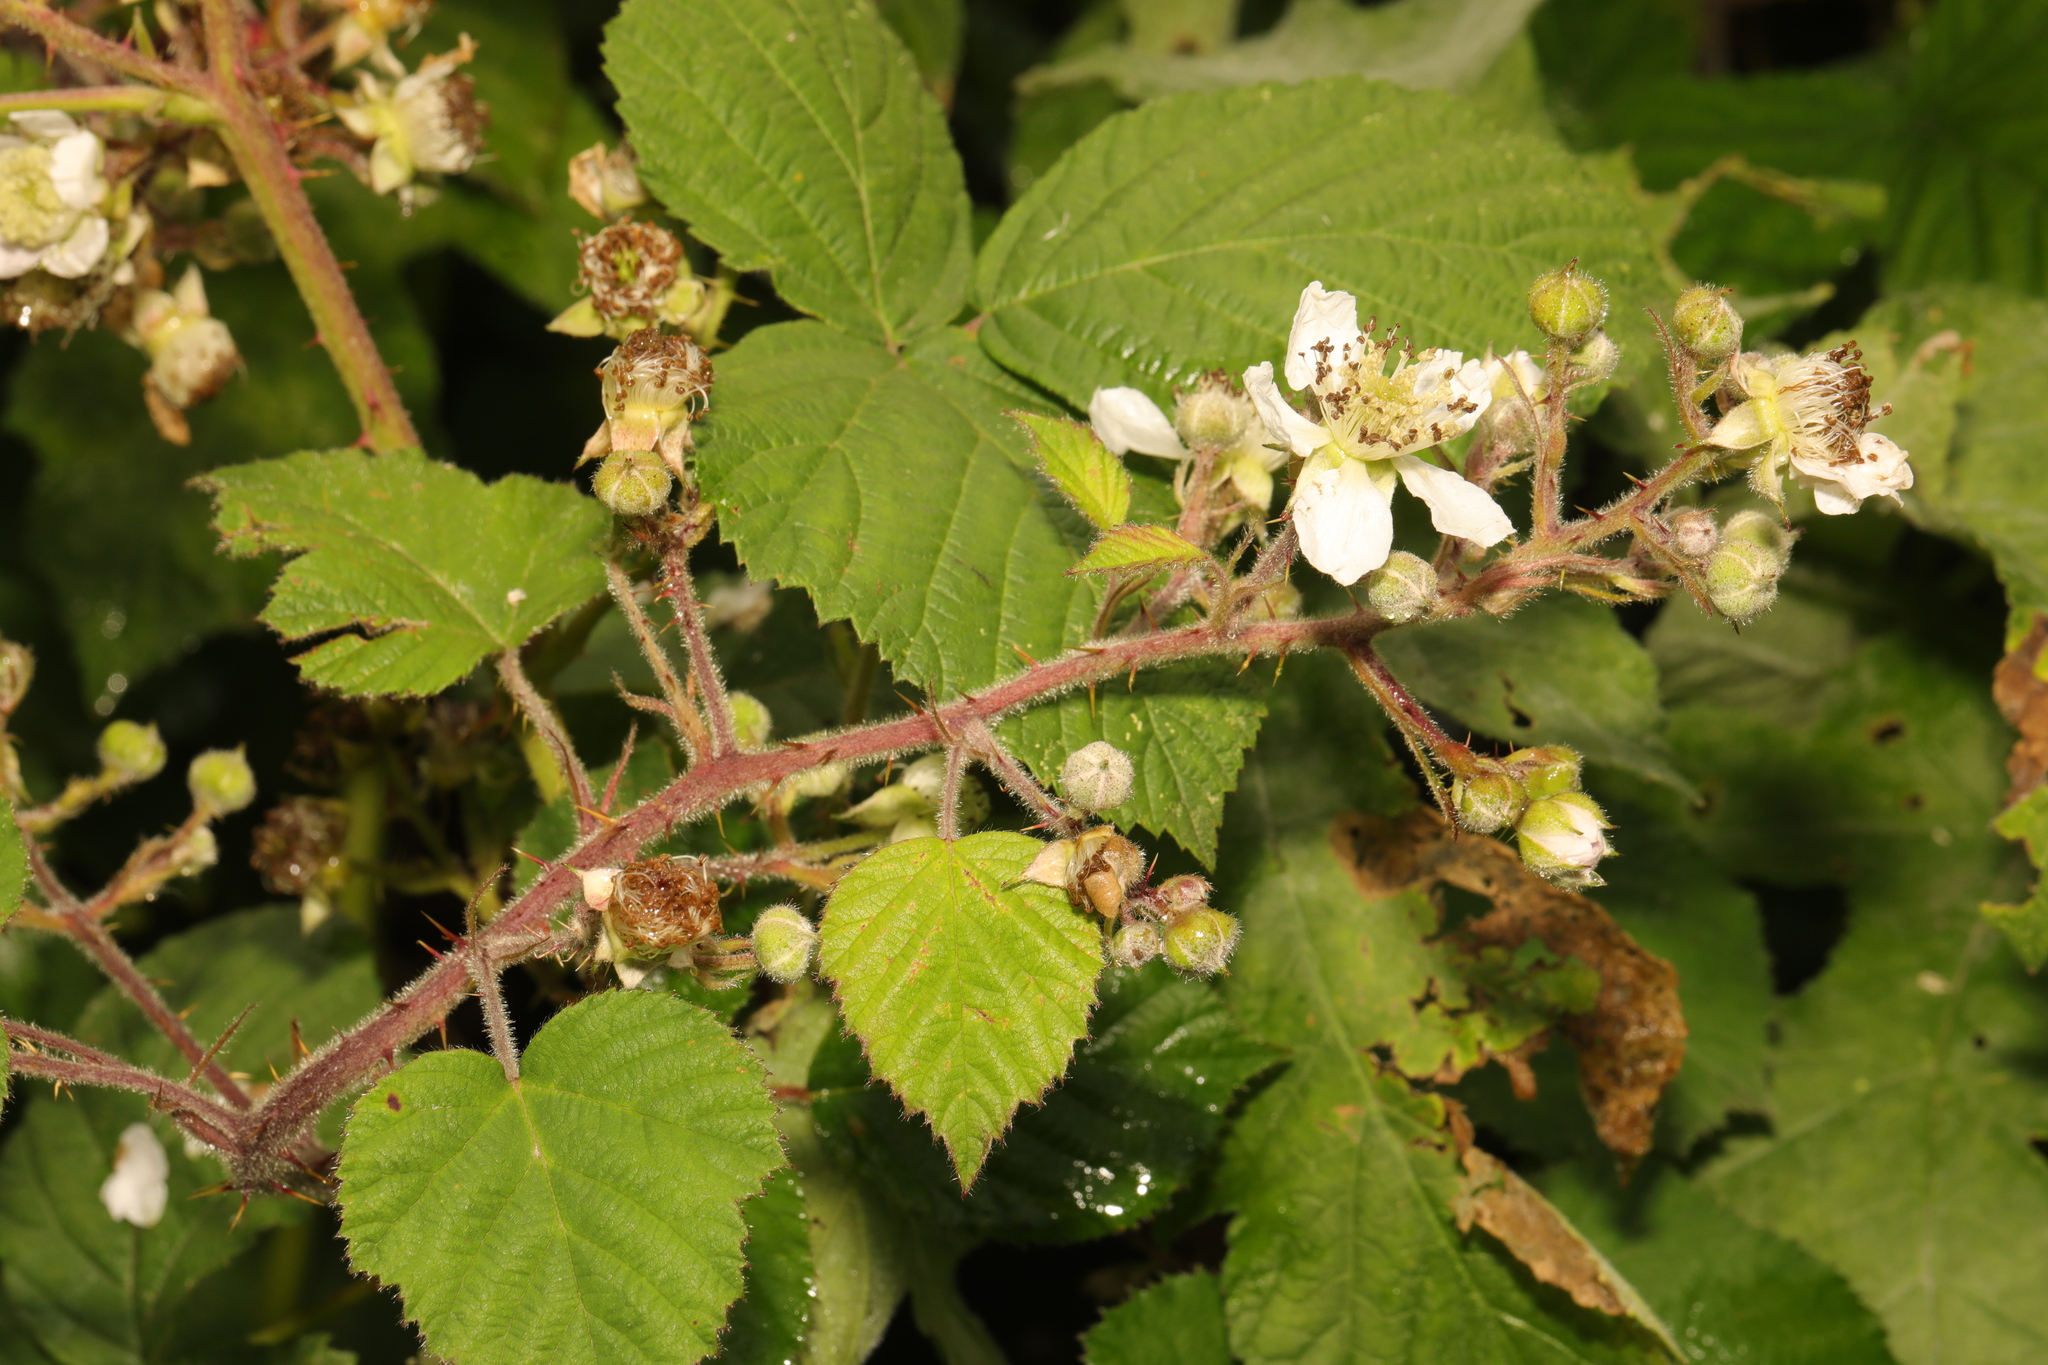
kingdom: Plantae
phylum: Tracheophyta
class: Magnoliopsida
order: Rosales
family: Rosaceae
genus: Rubus
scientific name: Rubus fruticosus
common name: Blackberry, bramble
